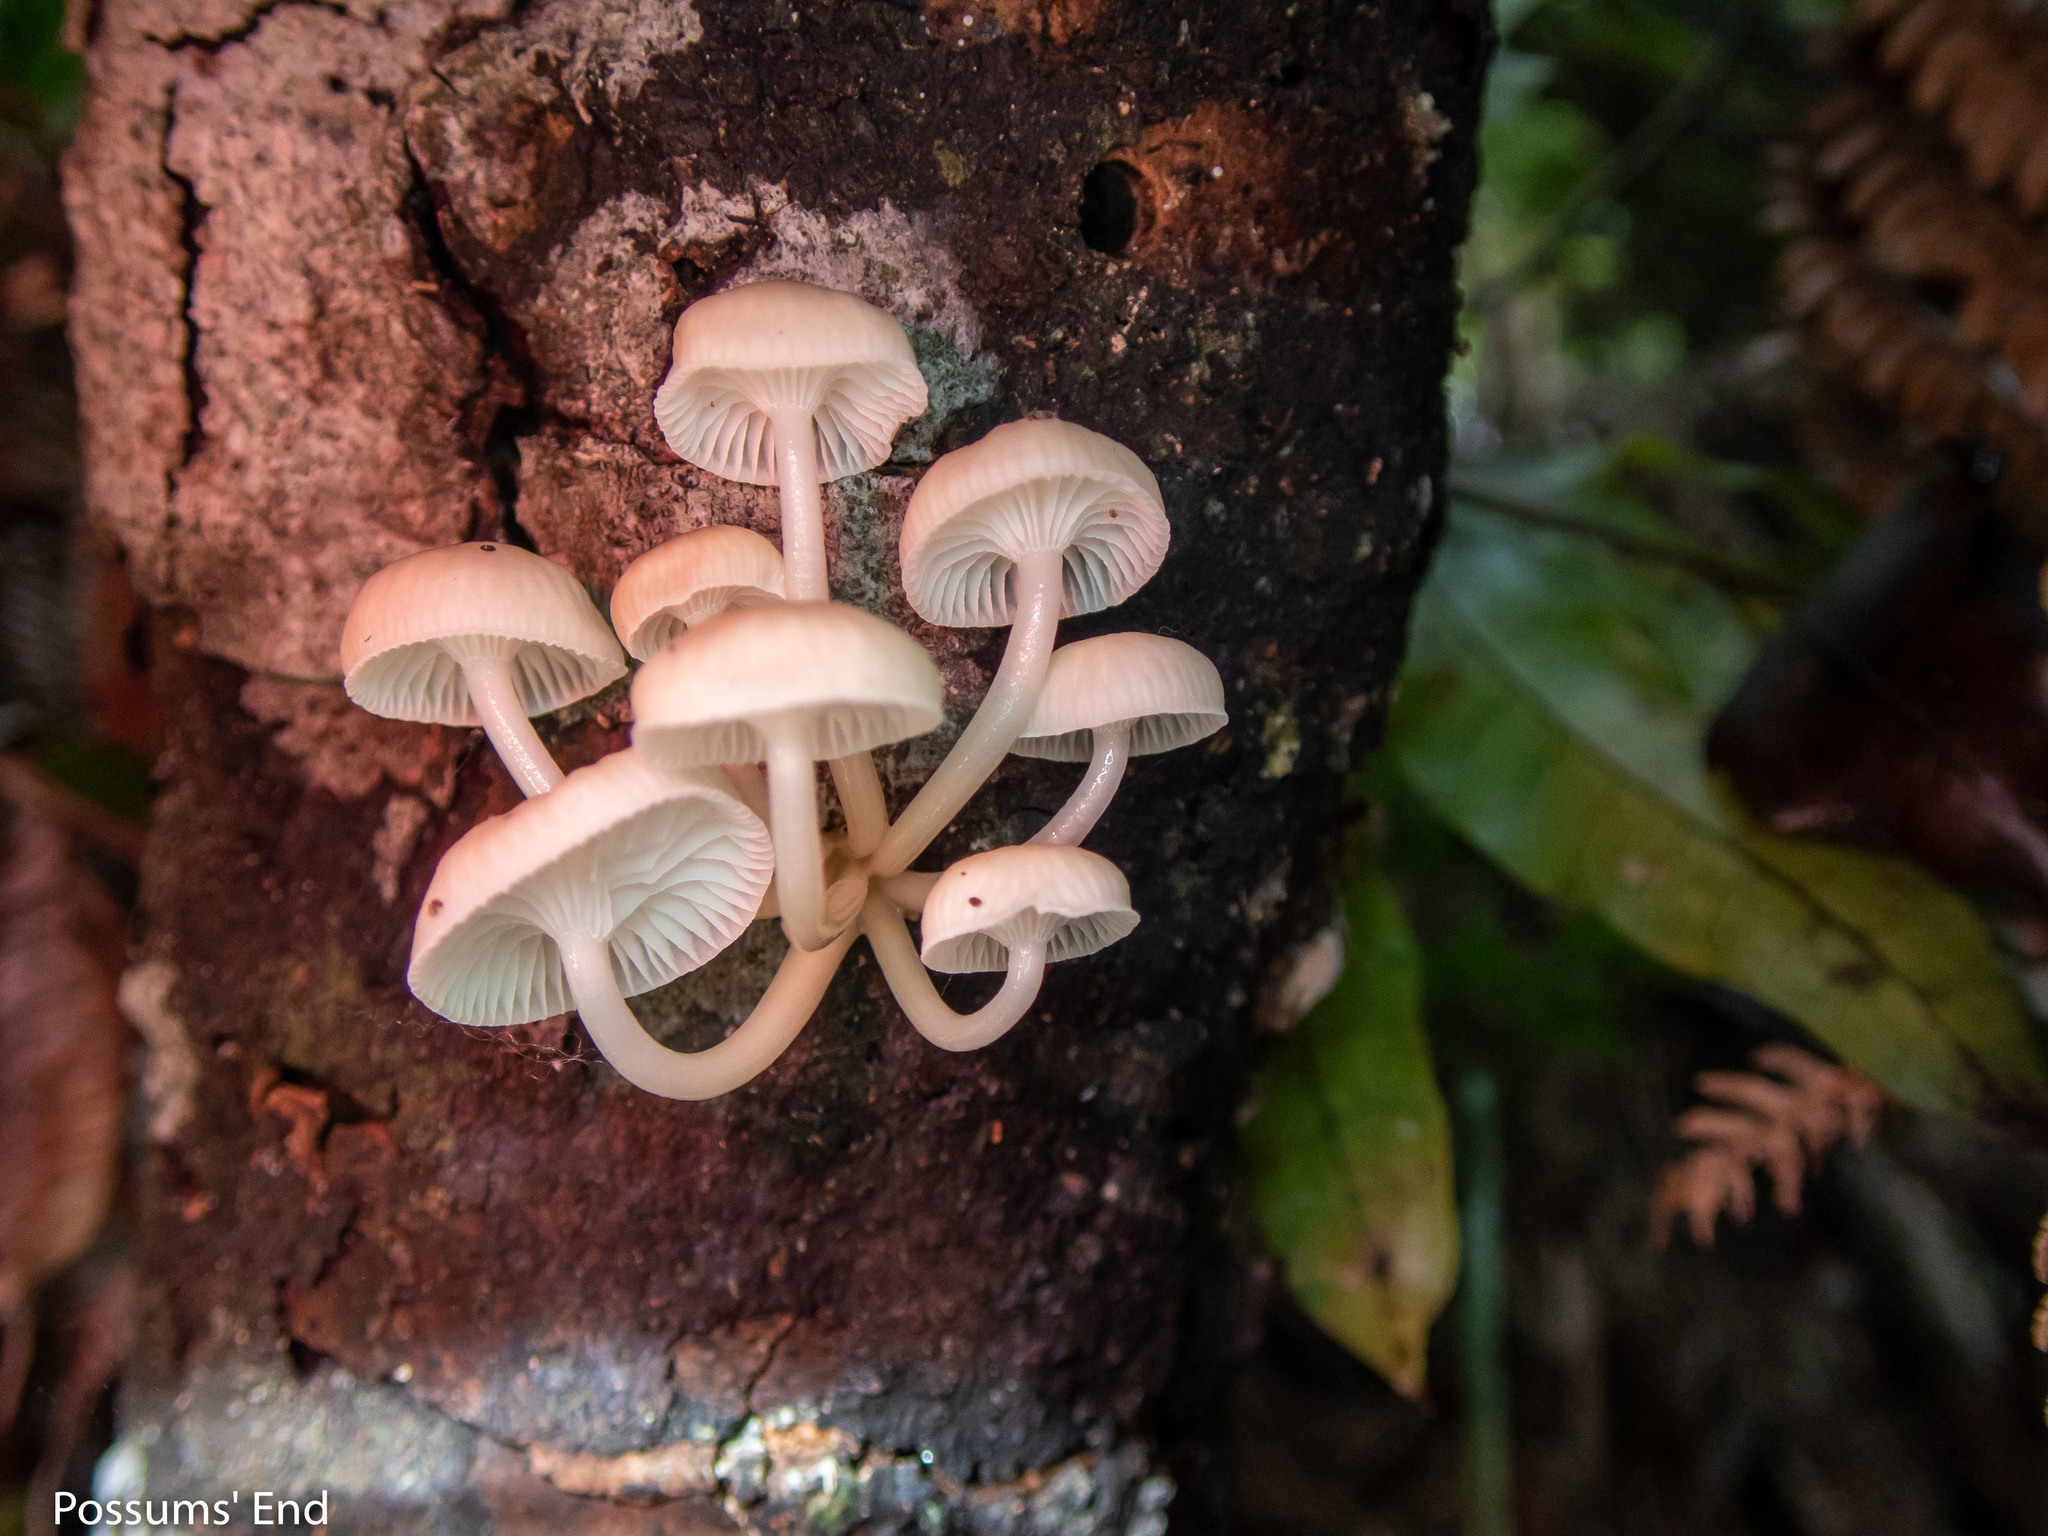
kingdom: Fungi
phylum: Basidiomycota
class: Agaricomycetes
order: Agaricales
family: Mycenaceae
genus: Roridomyces
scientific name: Roridomyces austrororidus
